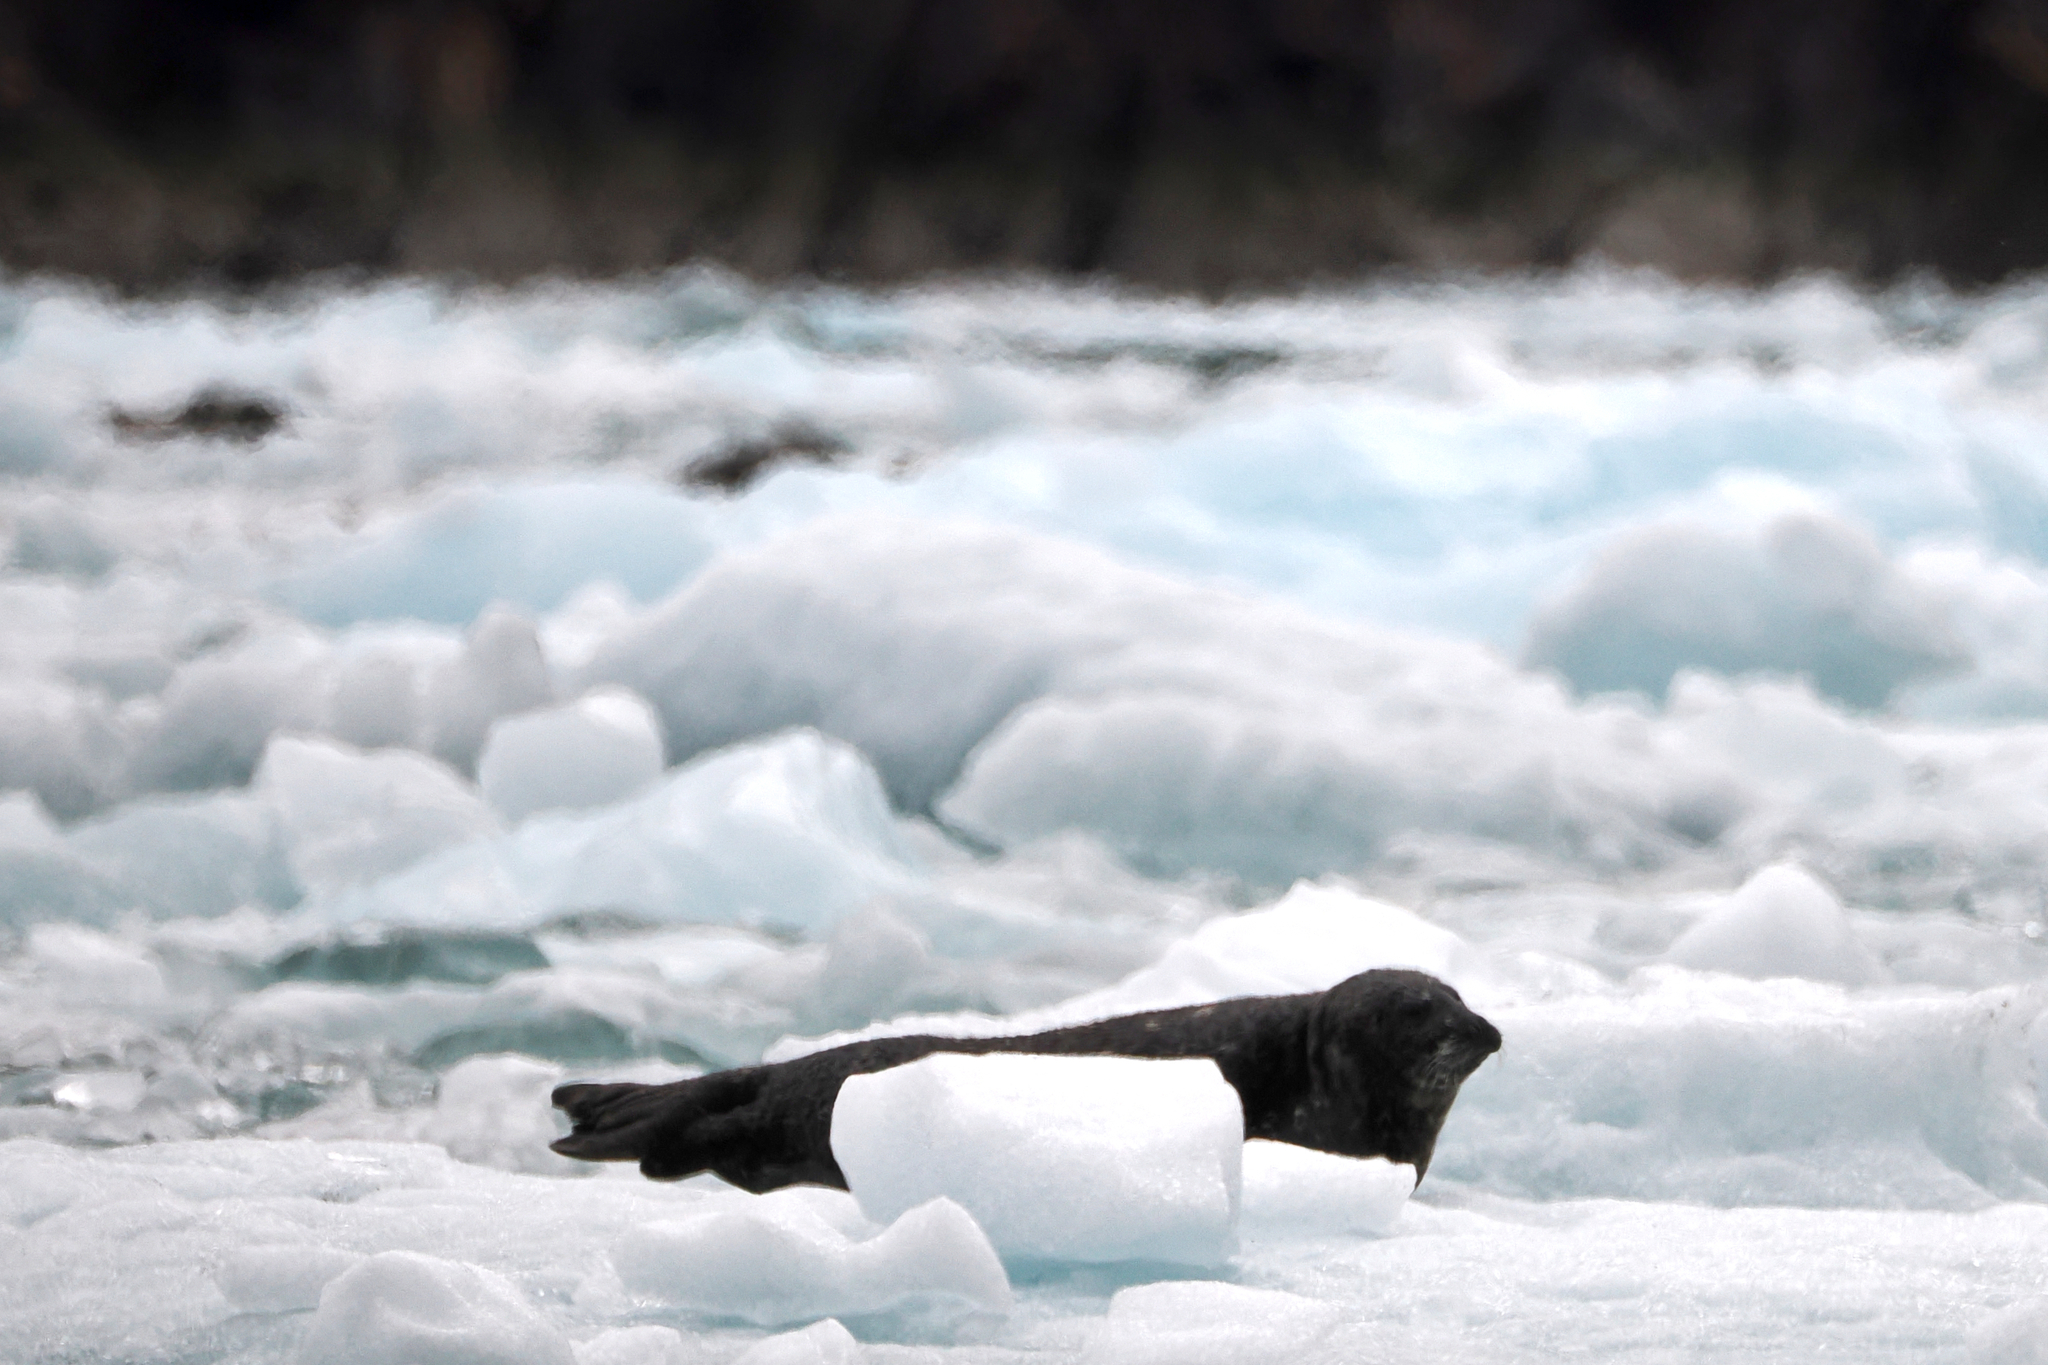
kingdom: Animalia
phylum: Chordata
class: Mammalia
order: Carnivora
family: Phocidae
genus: Phoca
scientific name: Phoca vitulina
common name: Harbor seal
